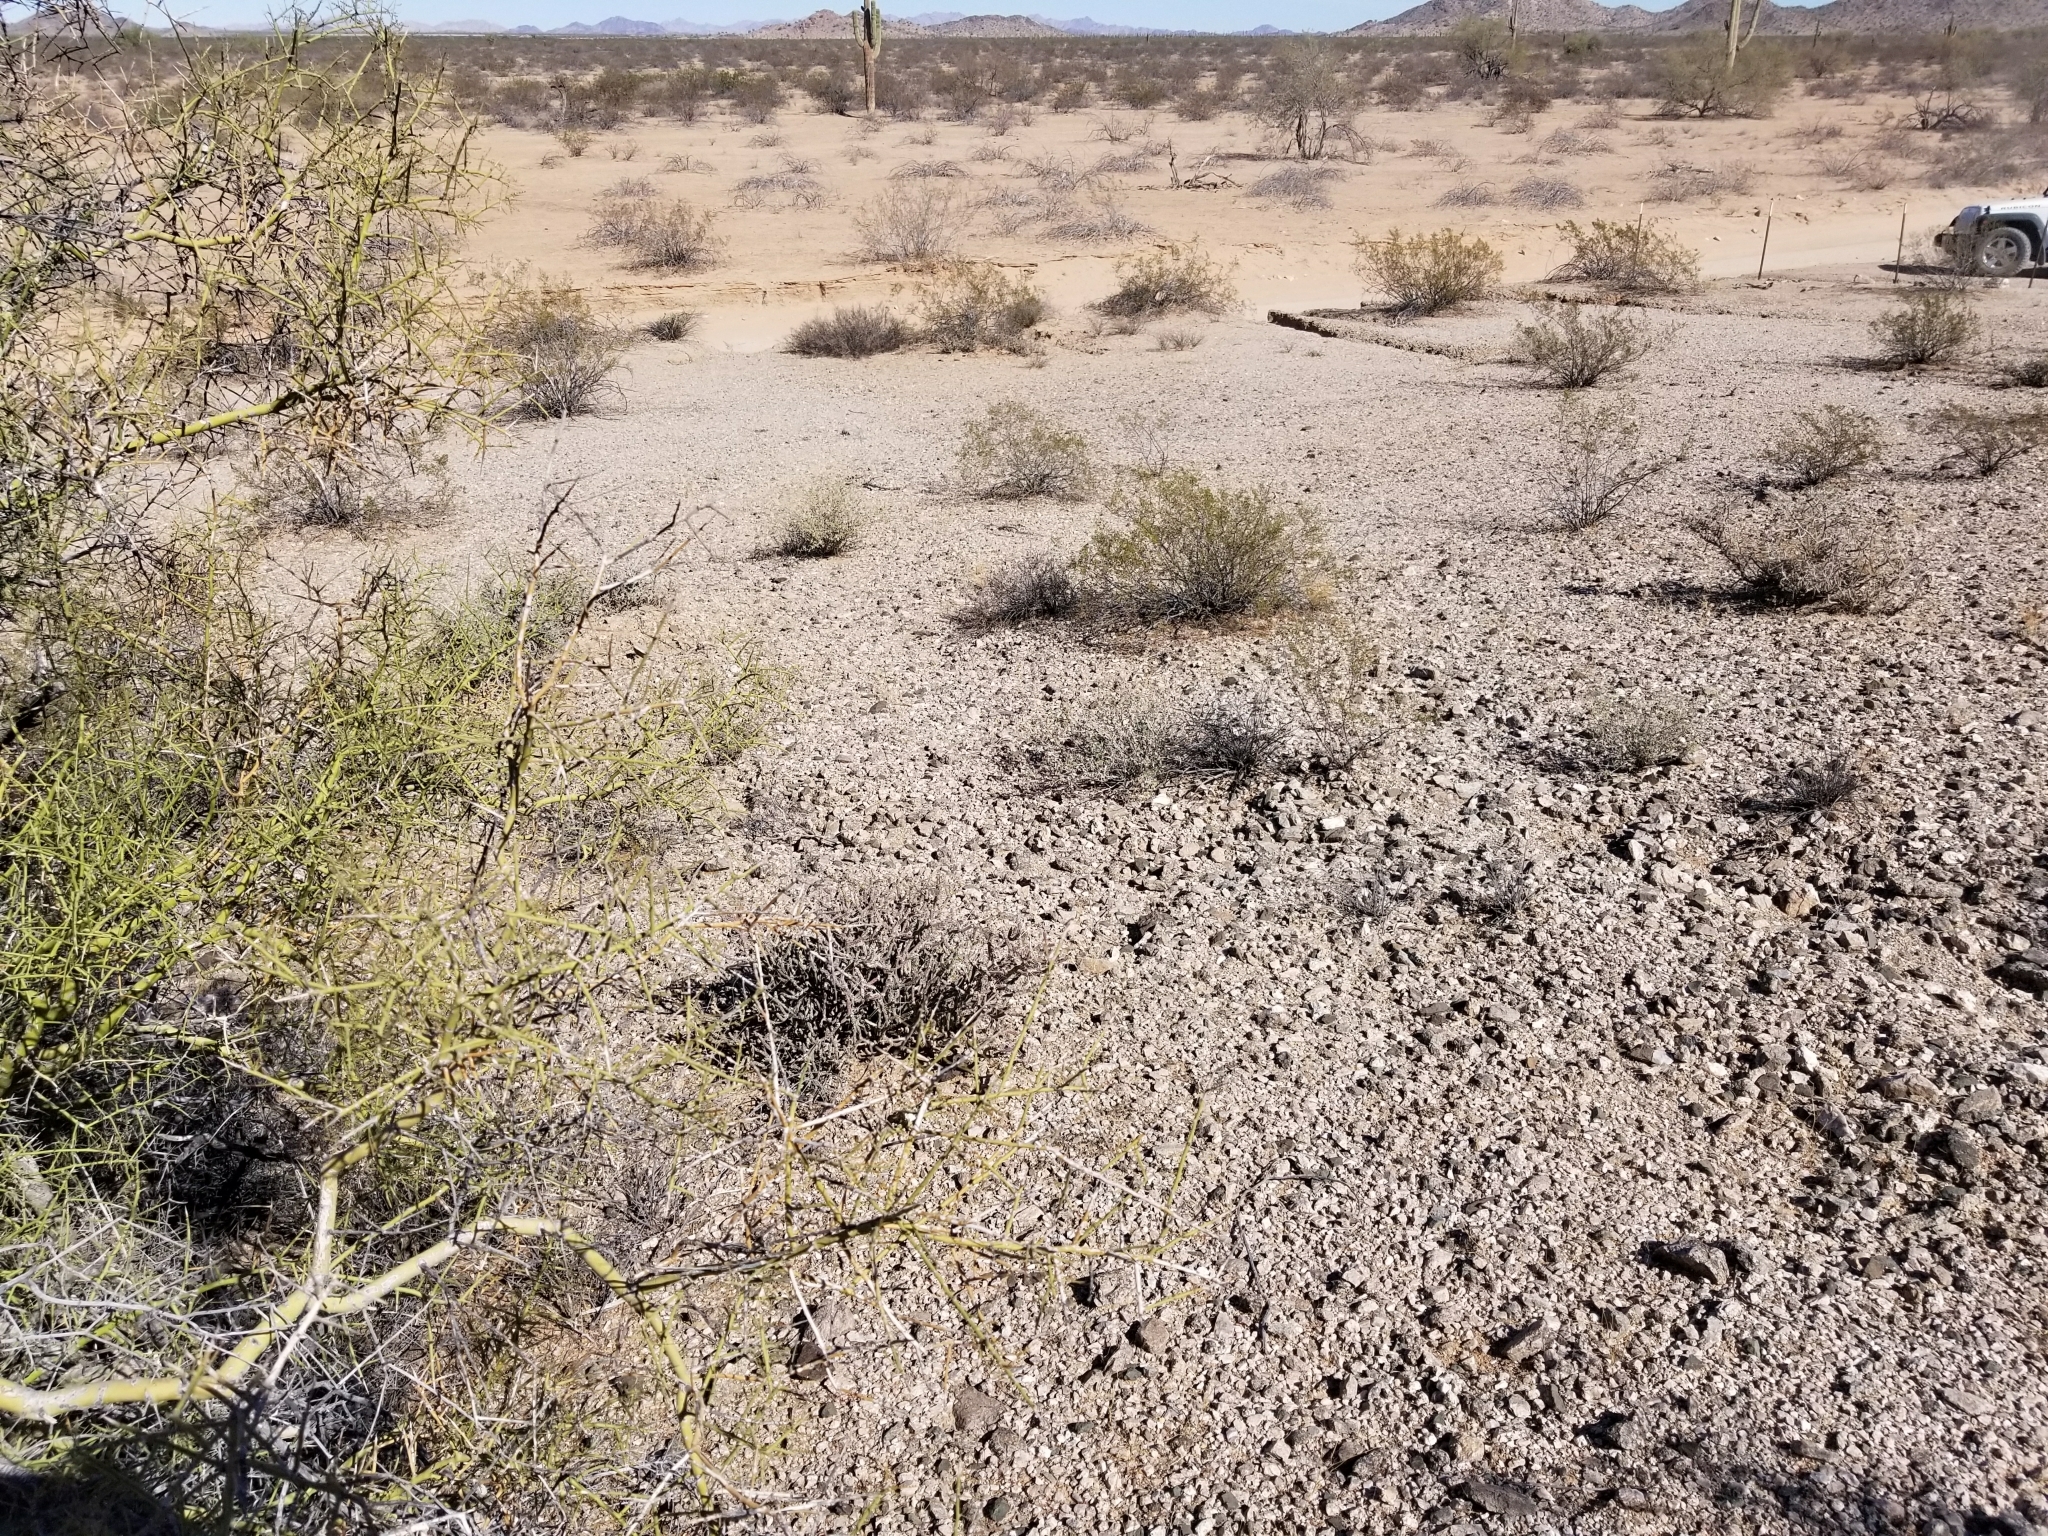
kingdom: Plantae
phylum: Tracheophyta
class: Magnoliopsida
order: Caryophyllales
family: Cactaceae
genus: Cylindropuntia
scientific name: Cylindropuntia ramosissima
